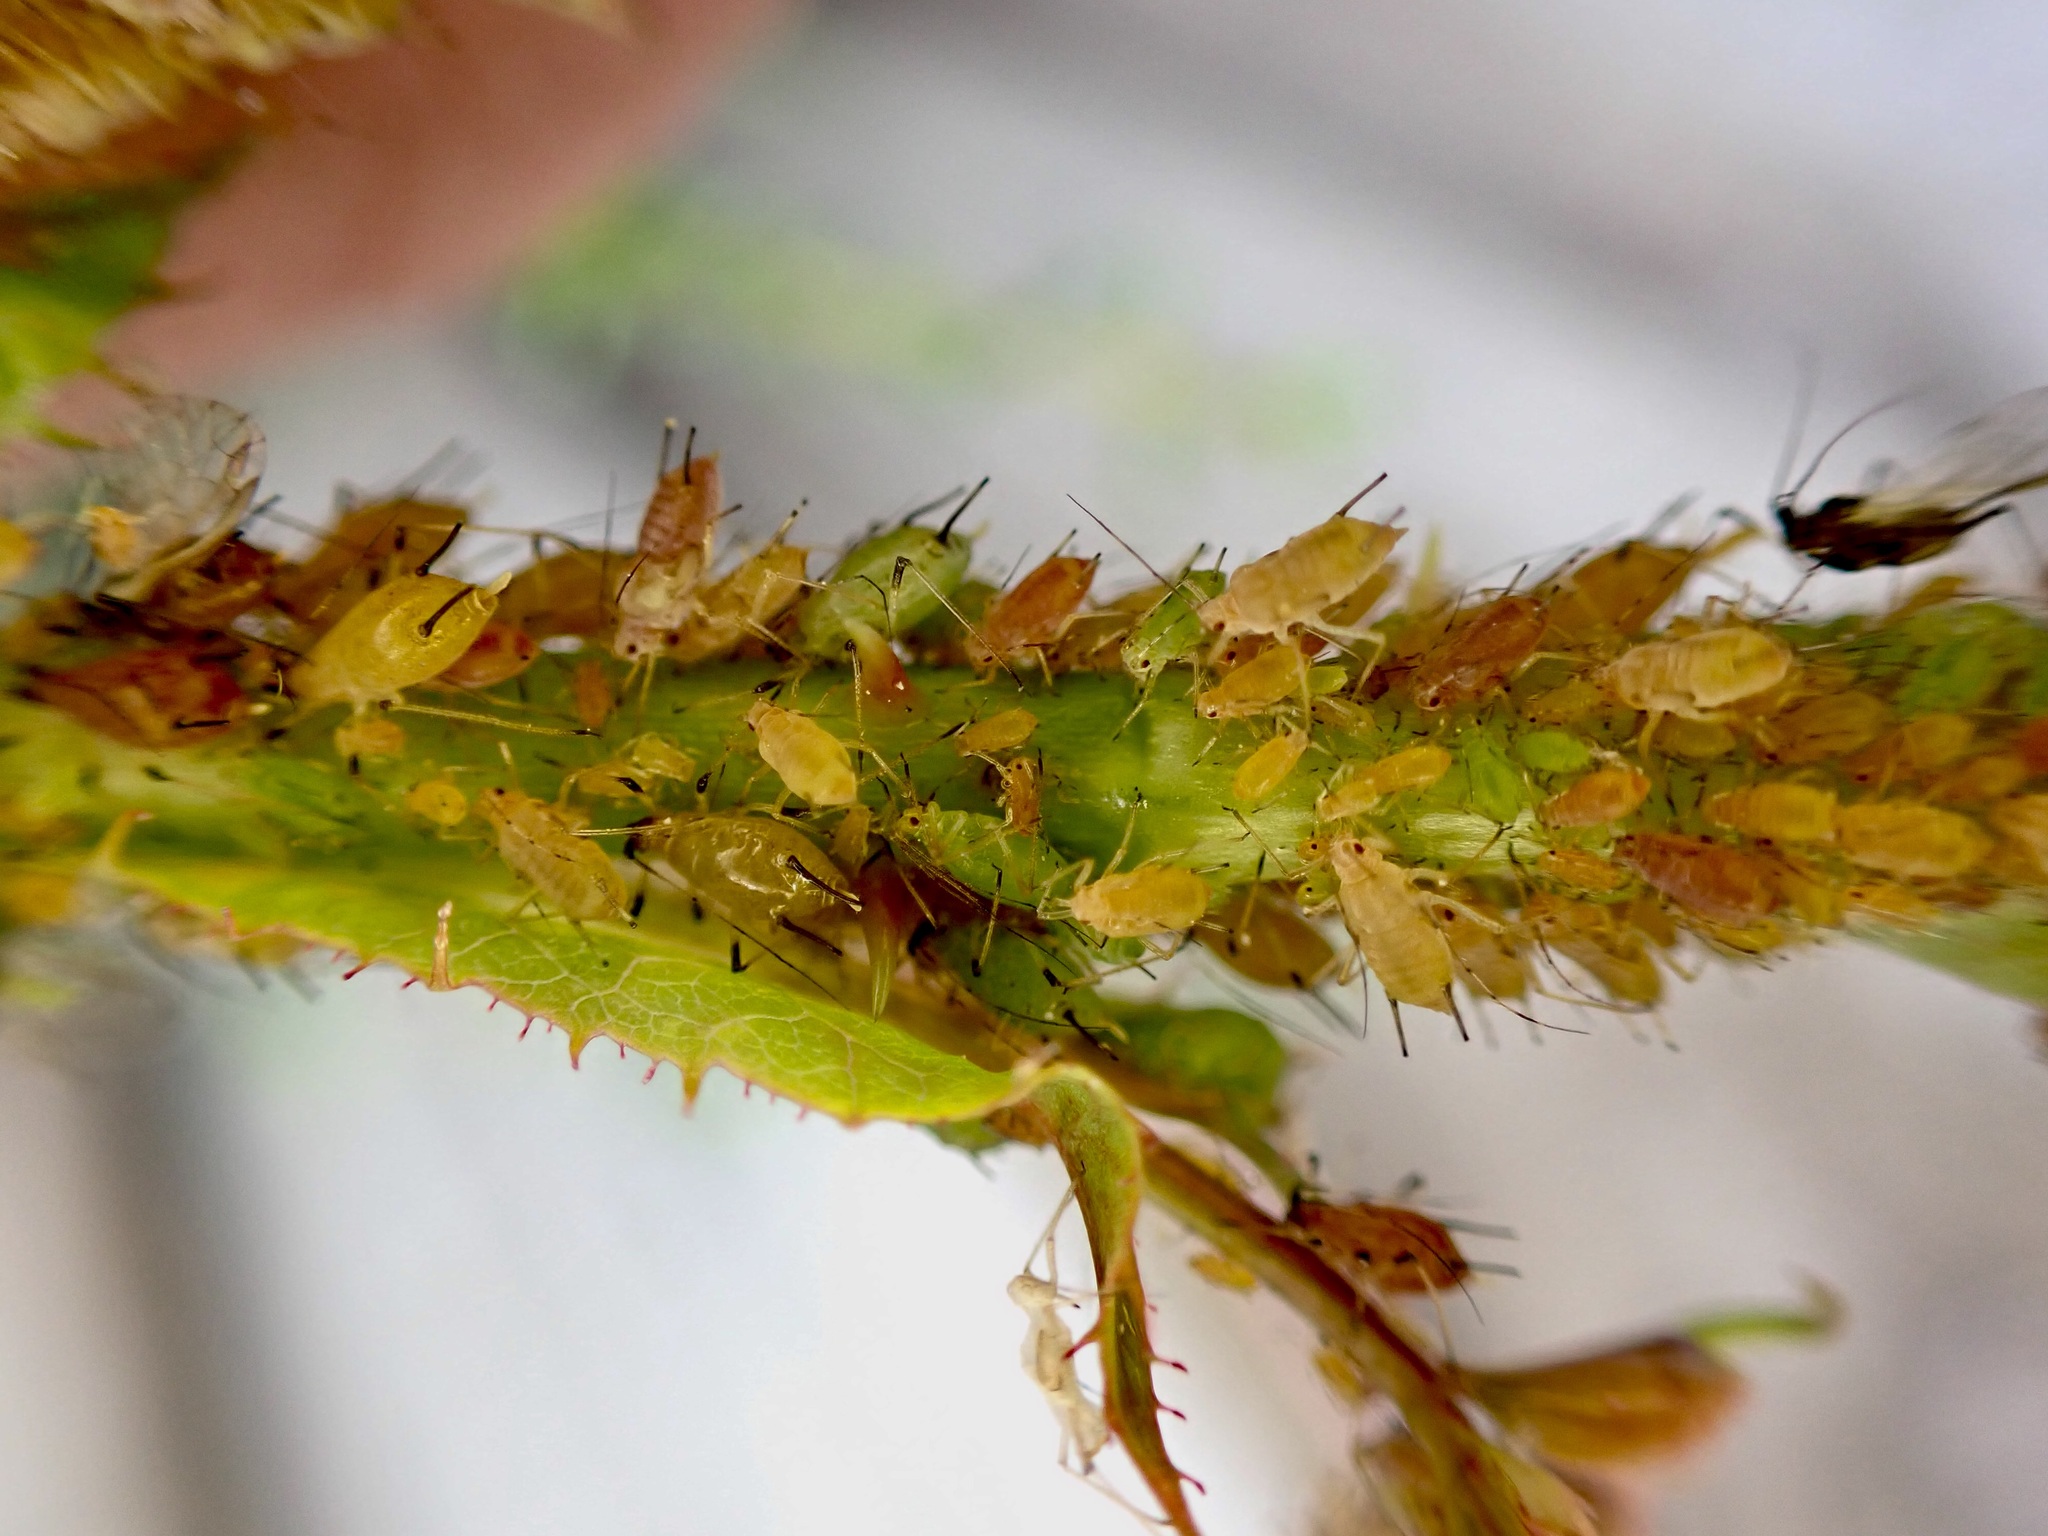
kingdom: Animalia
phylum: Arthropoda
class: Insecta
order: Hemiptera
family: Aphididae
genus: Macrosiphum
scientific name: Macrosiphum rosae
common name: Rose aphid
